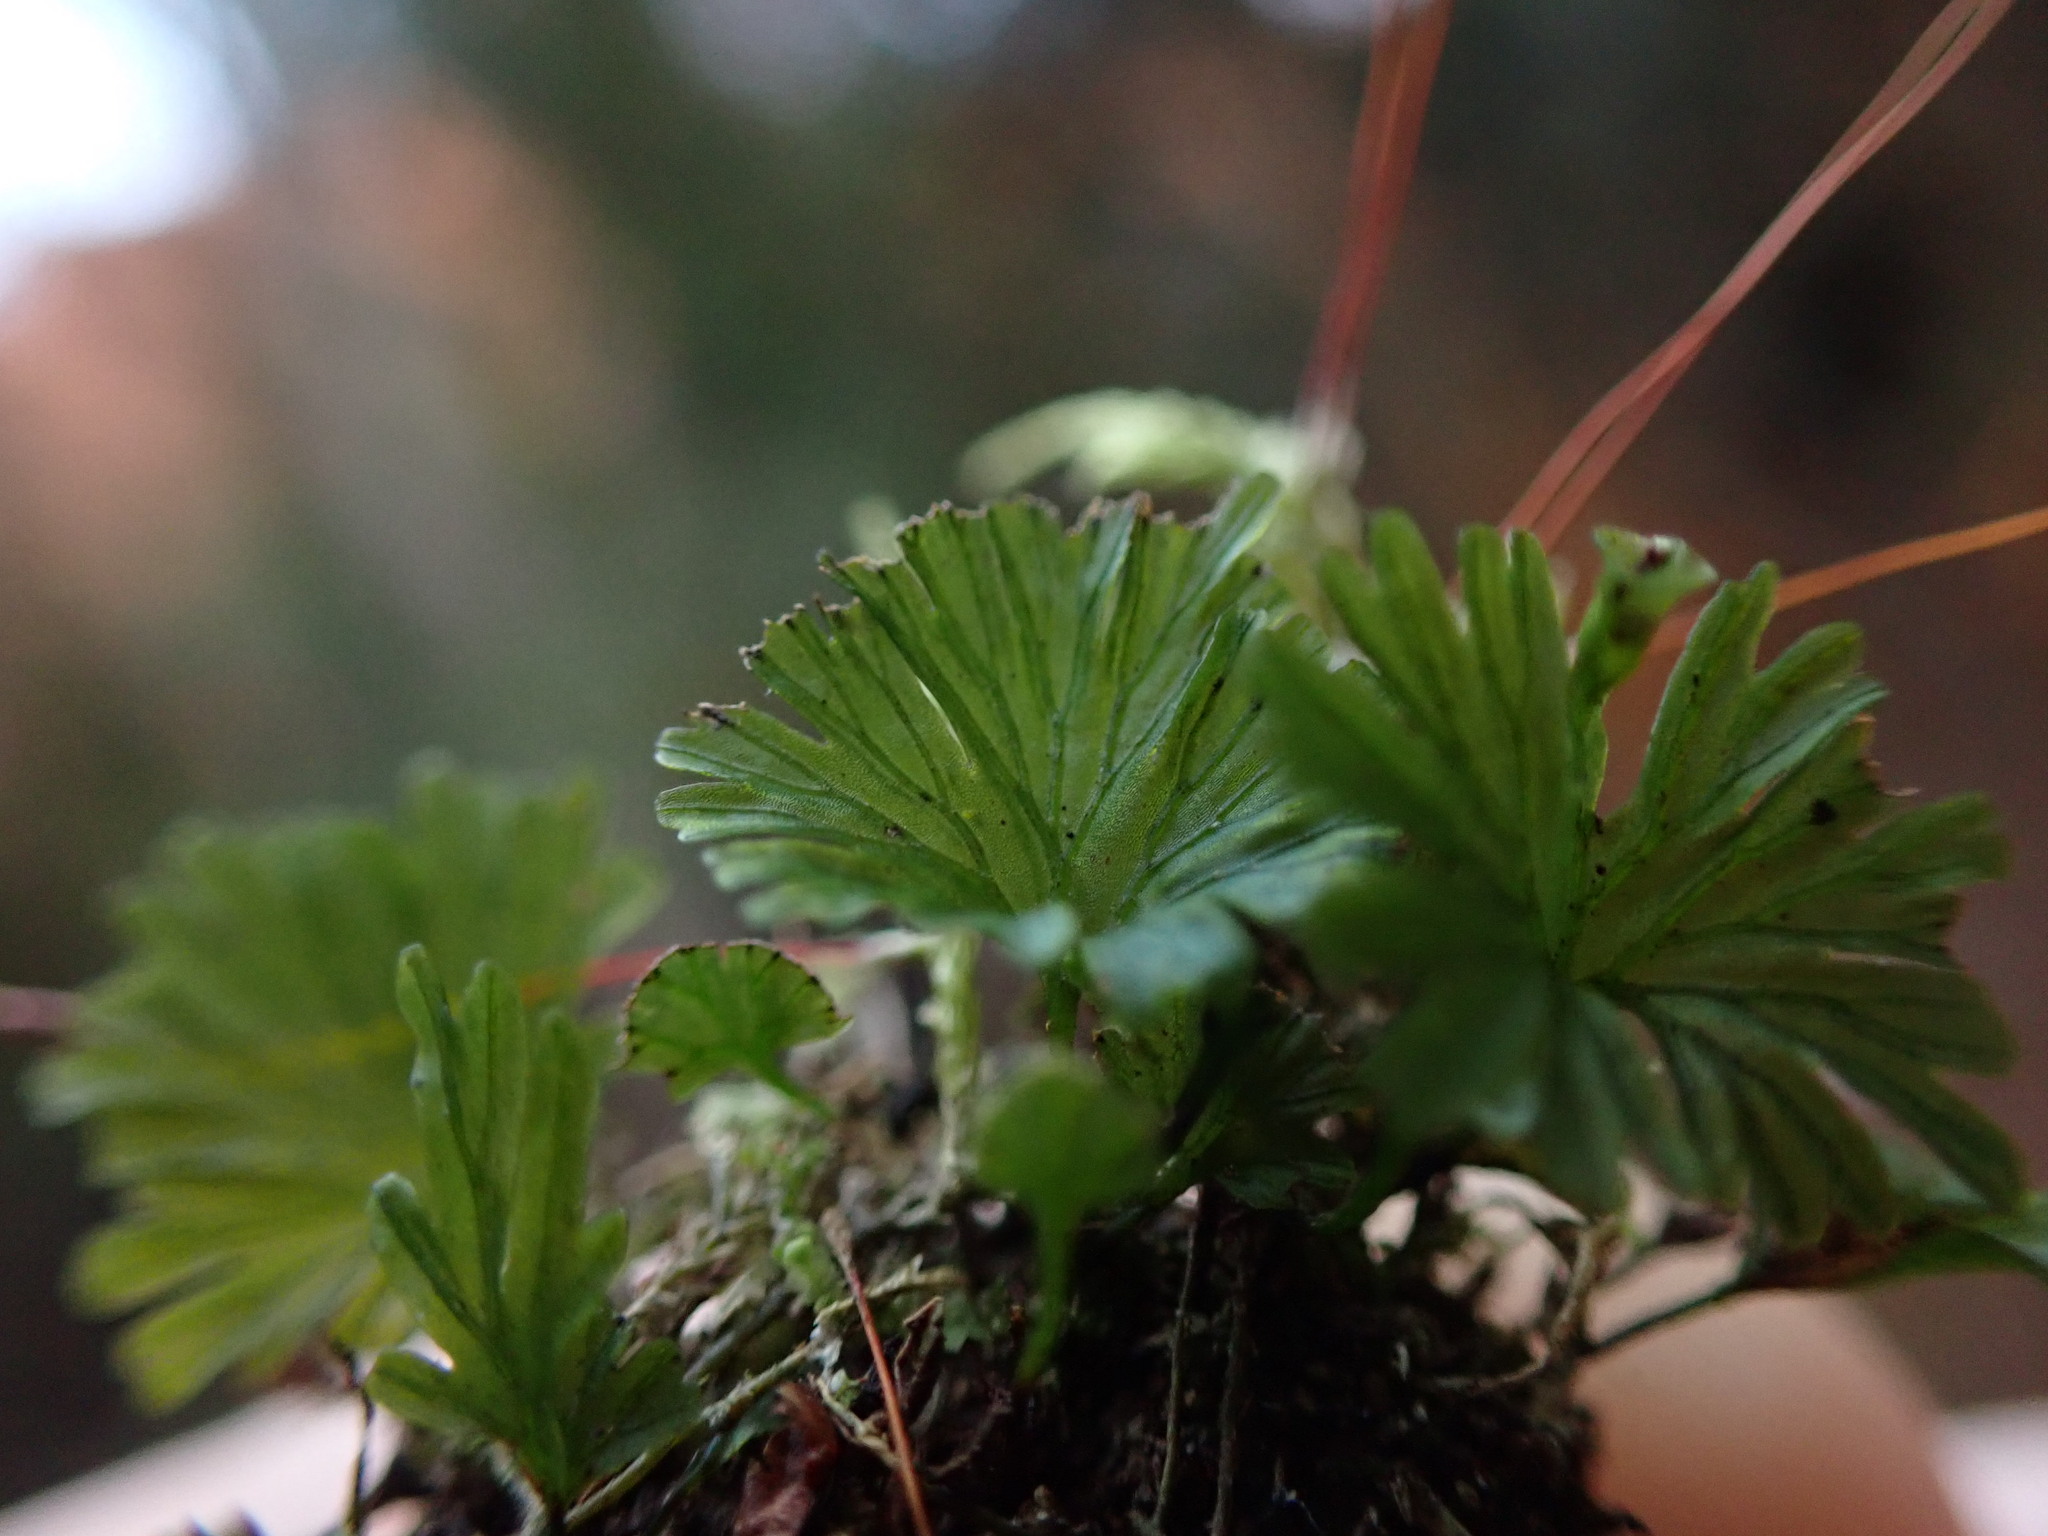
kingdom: Plantae
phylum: Tracheophyta
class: Polypodiopsida
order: Hymenophyllales
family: Hymenophyllaceae
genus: Crepidomanes
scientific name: Crepidomanes parvulum
